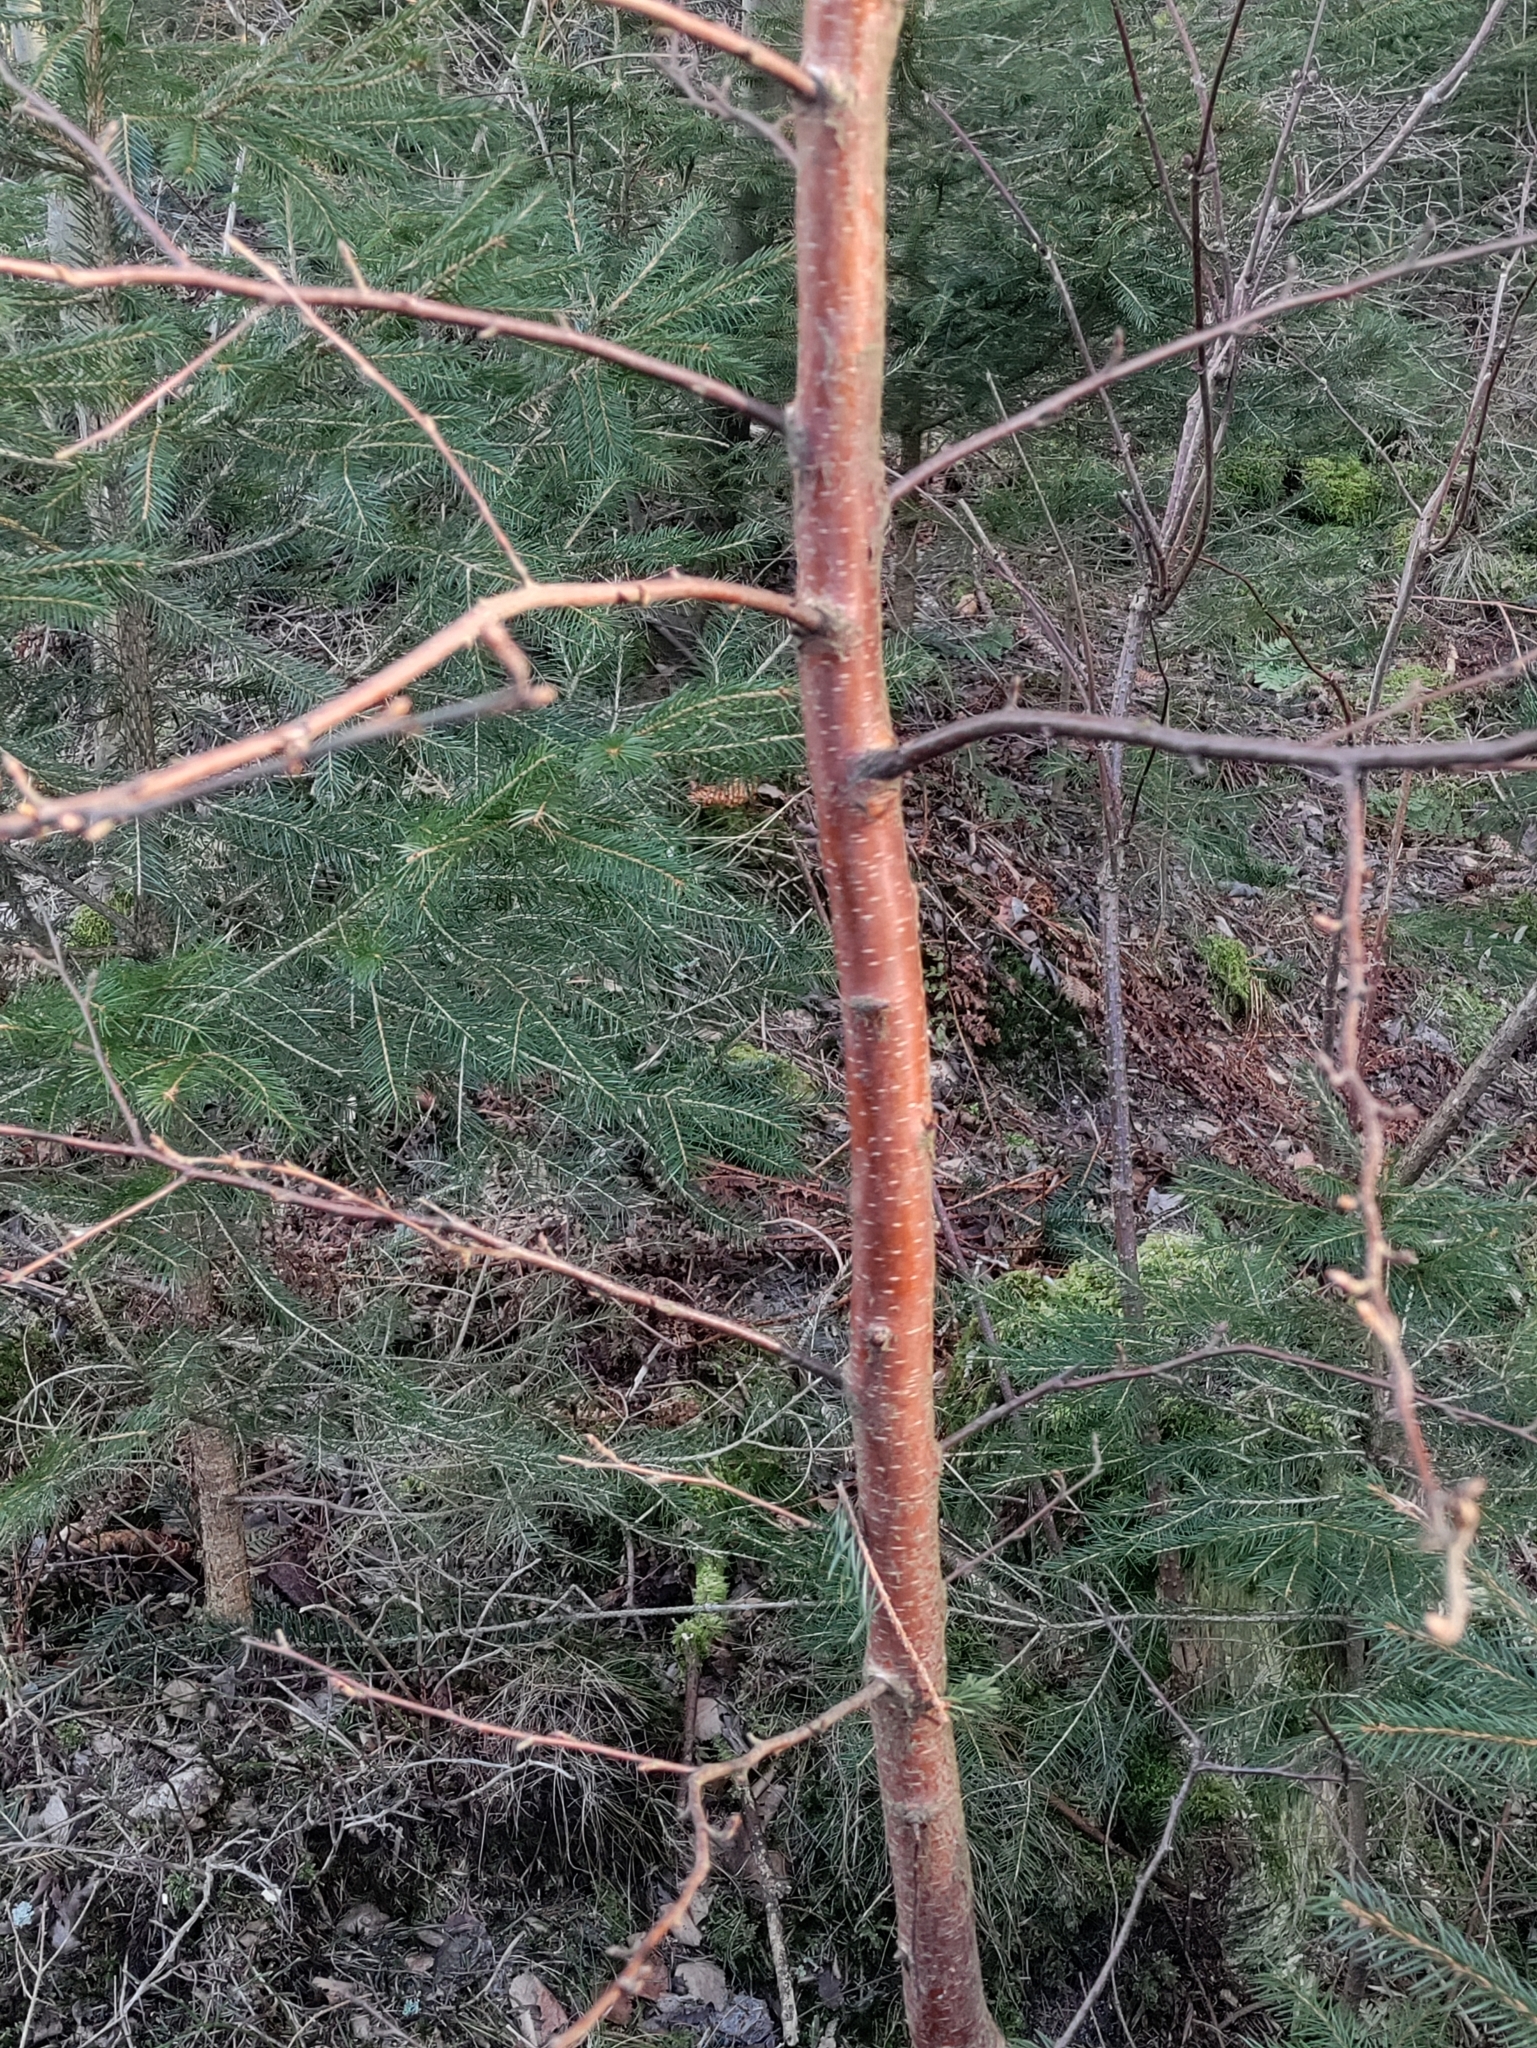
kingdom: Plantae
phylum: Tracheophyta
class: Magnoliopsida
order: Fagales
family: Betulaceae
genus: Betula
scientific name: Betula pubescens
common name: Downy birch
